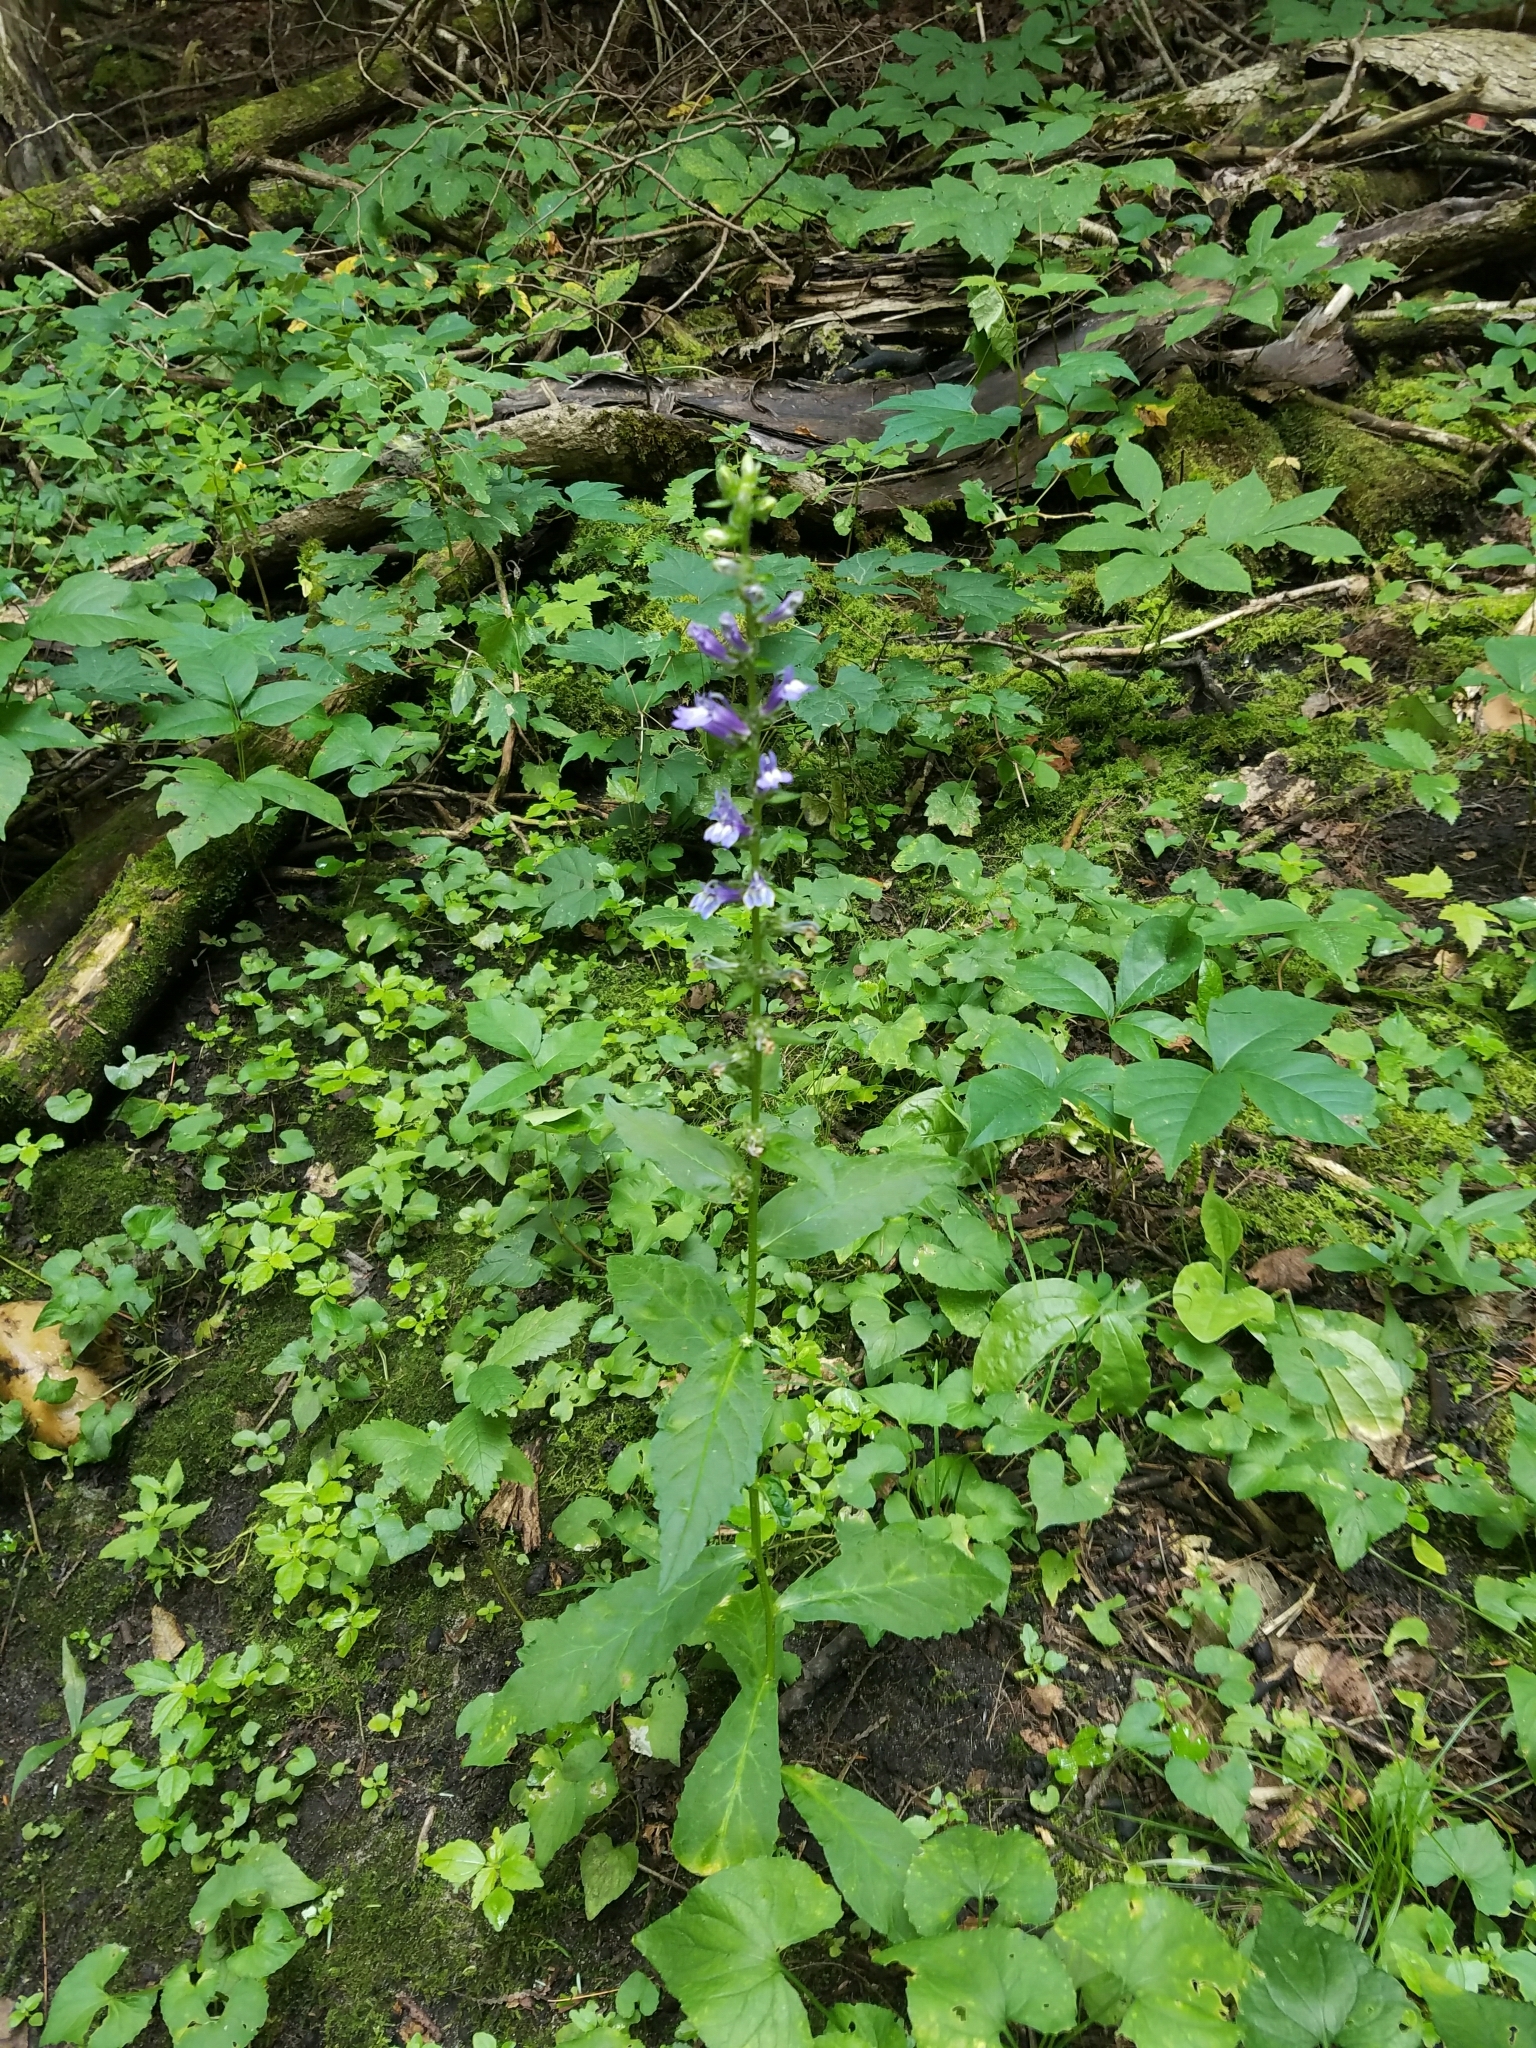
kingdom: Plantae
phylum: Tracheophyta
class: Magnoliopsida
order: Asterales
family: Campanulaceae
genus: Lobelia
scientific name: Lobelia siphilitica
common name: Great lobelia
